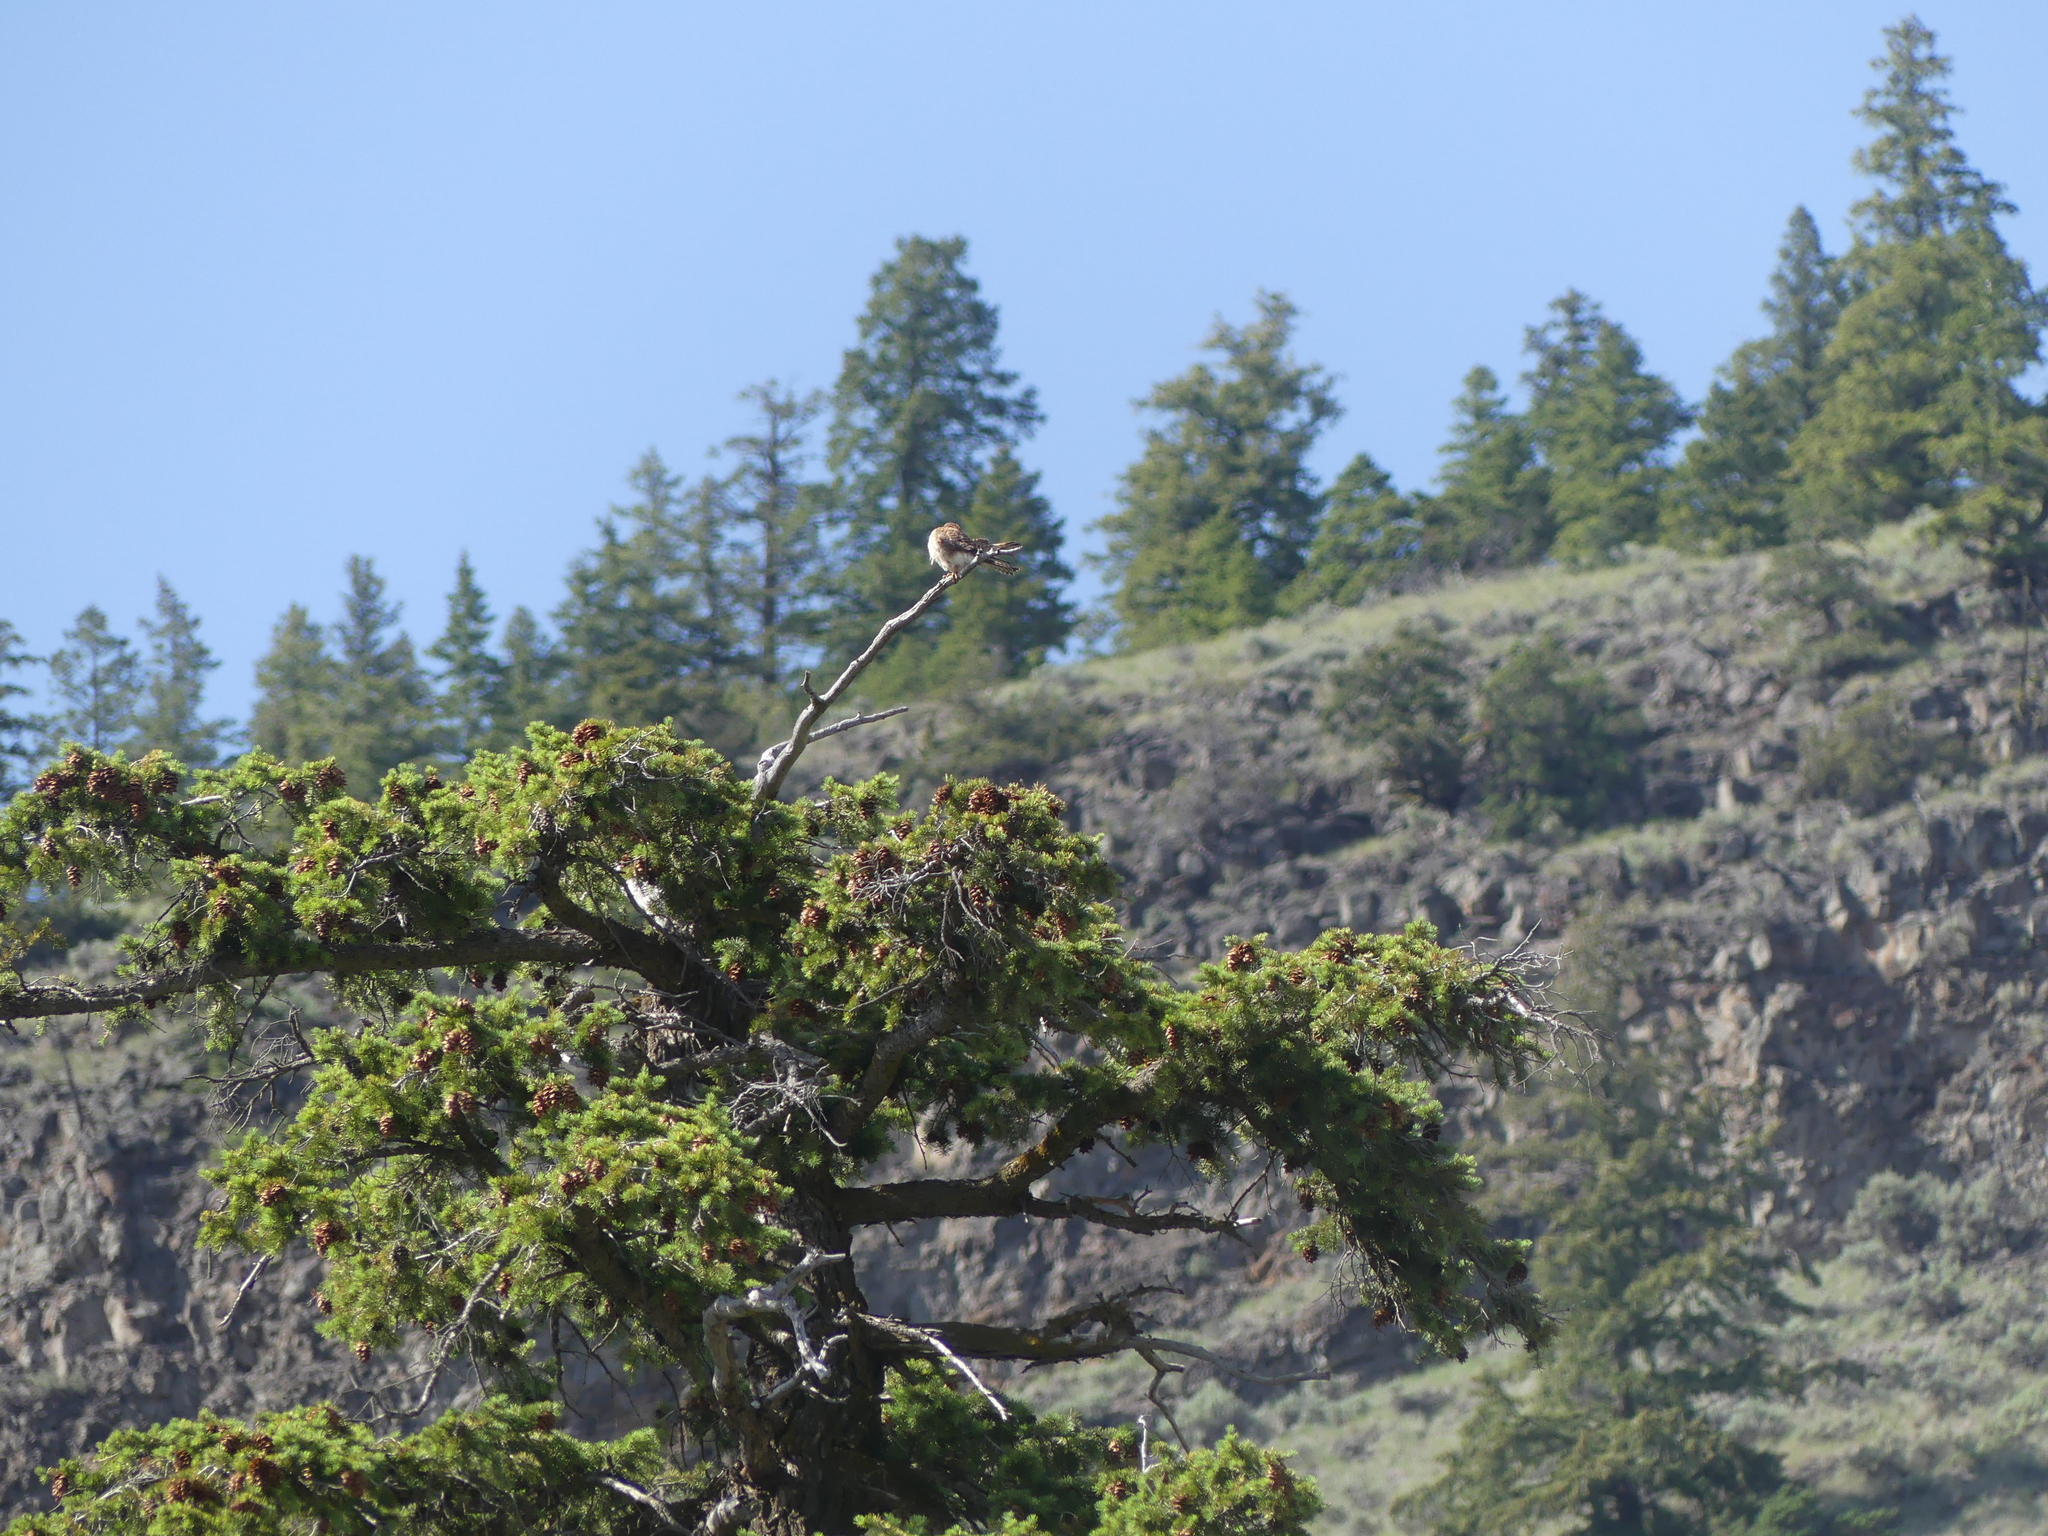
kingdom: Animalia
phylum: Chordata
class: Aves
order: Falconiformes
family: Falconidae
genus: Falco
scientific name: Falco sparverius
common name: American kestrel
